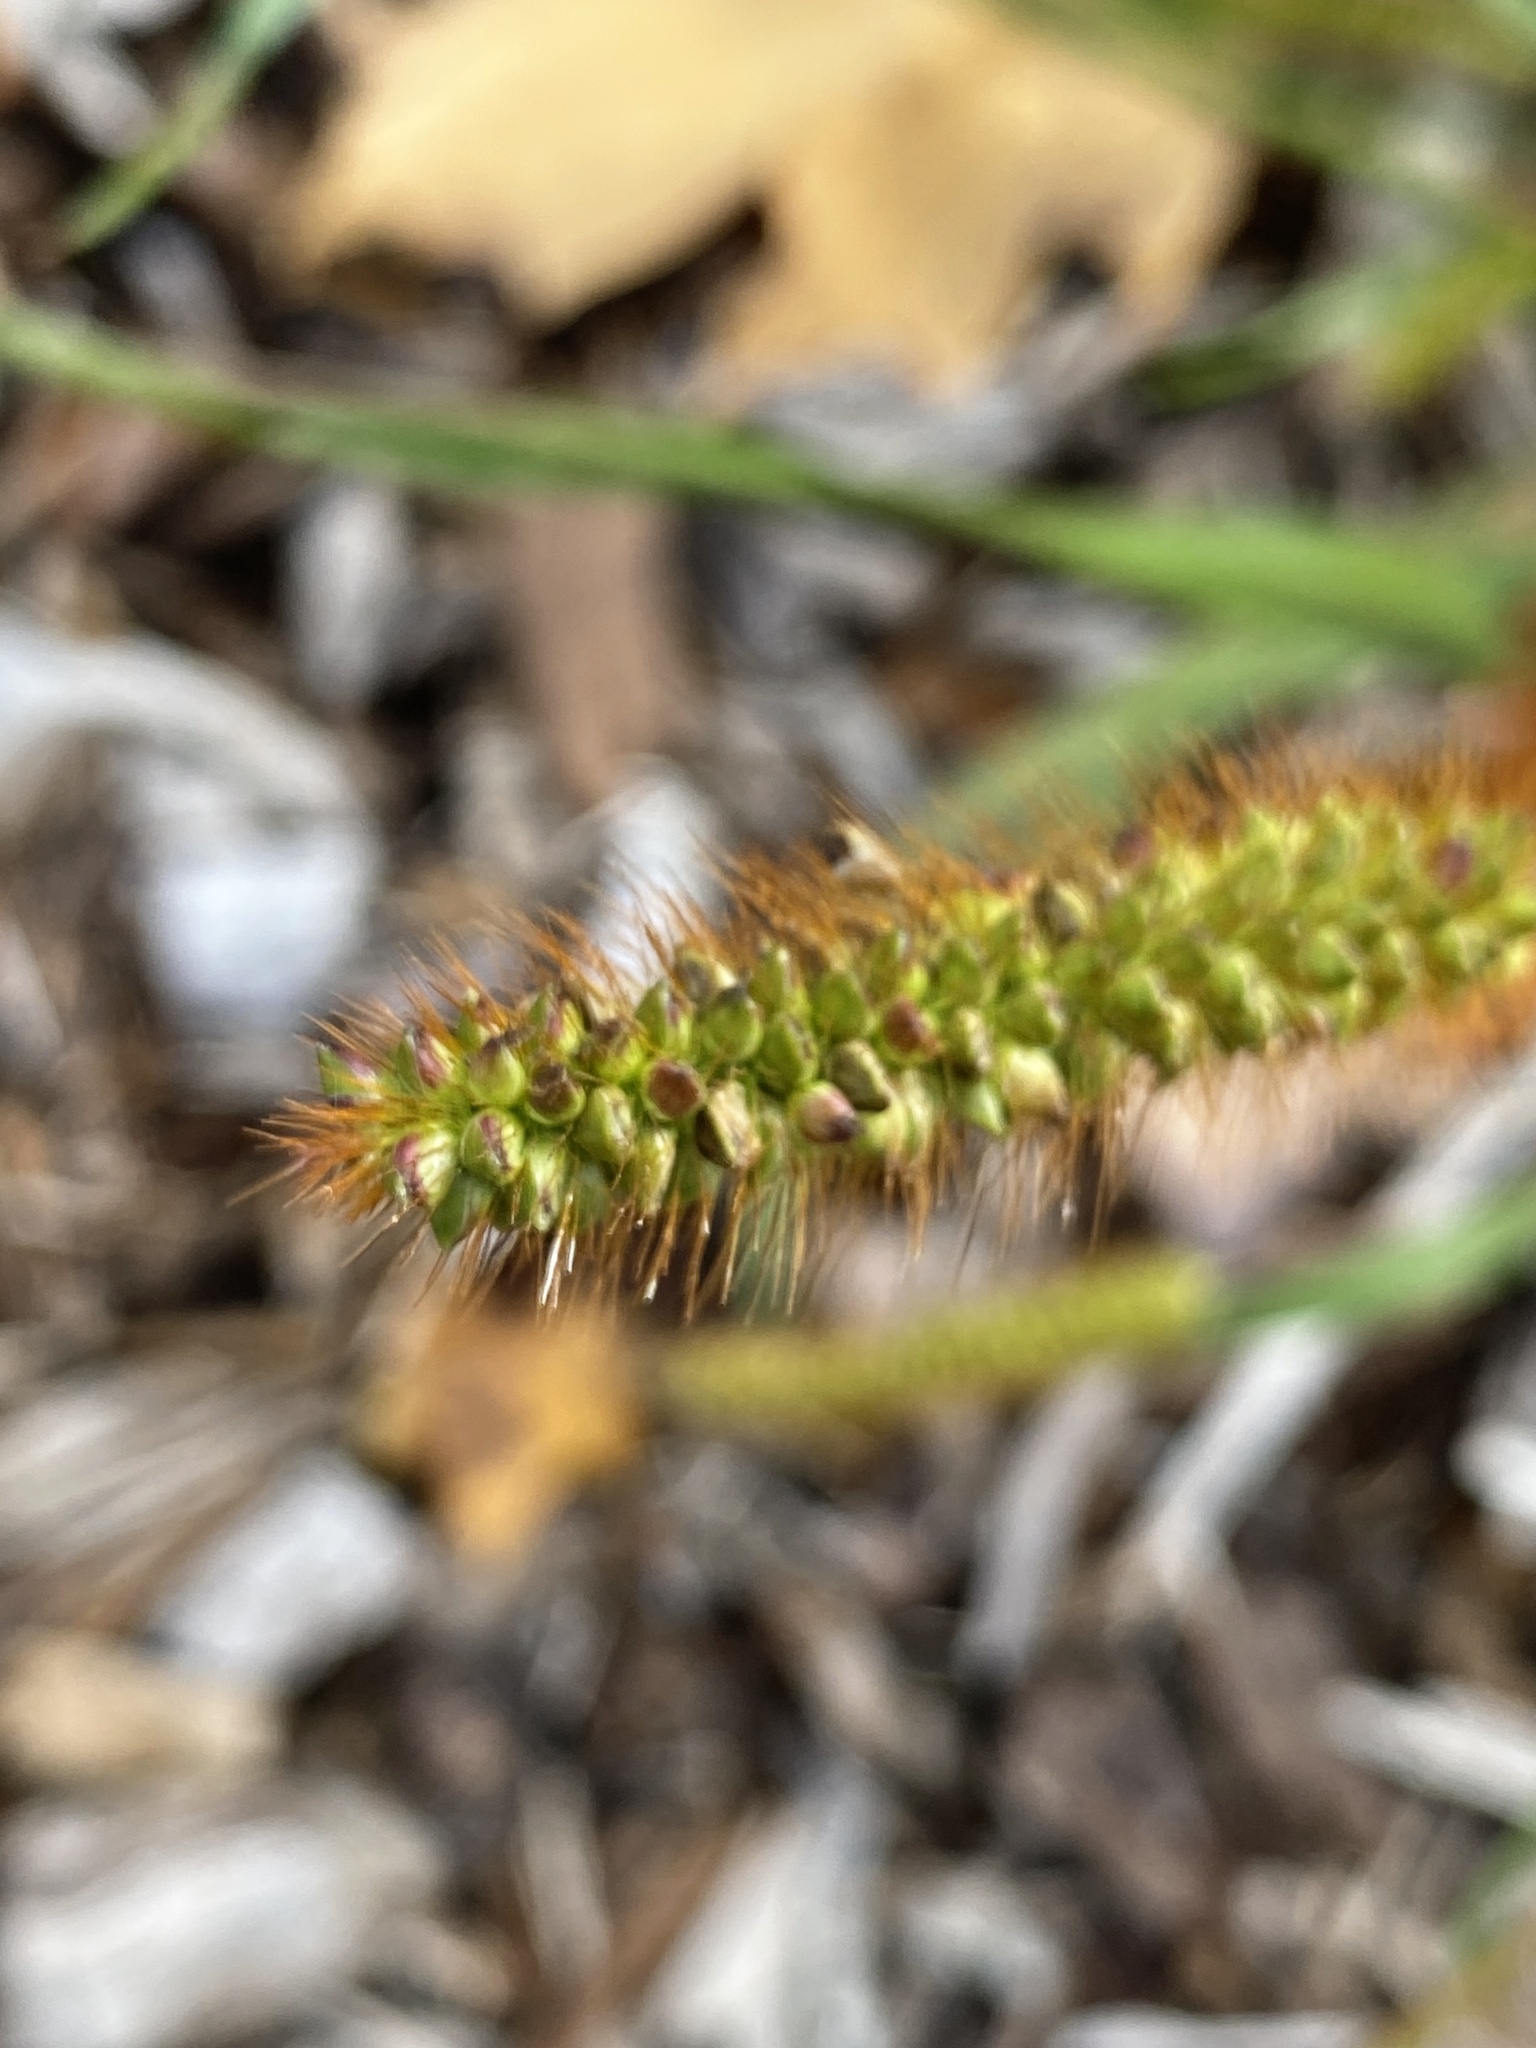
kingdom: Plantae
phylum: Tracheophyta
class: Liliopsida
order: Poales
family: Poaceae
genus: Setaria
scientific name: Setaria pumila
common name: Yellow bristle-grass
